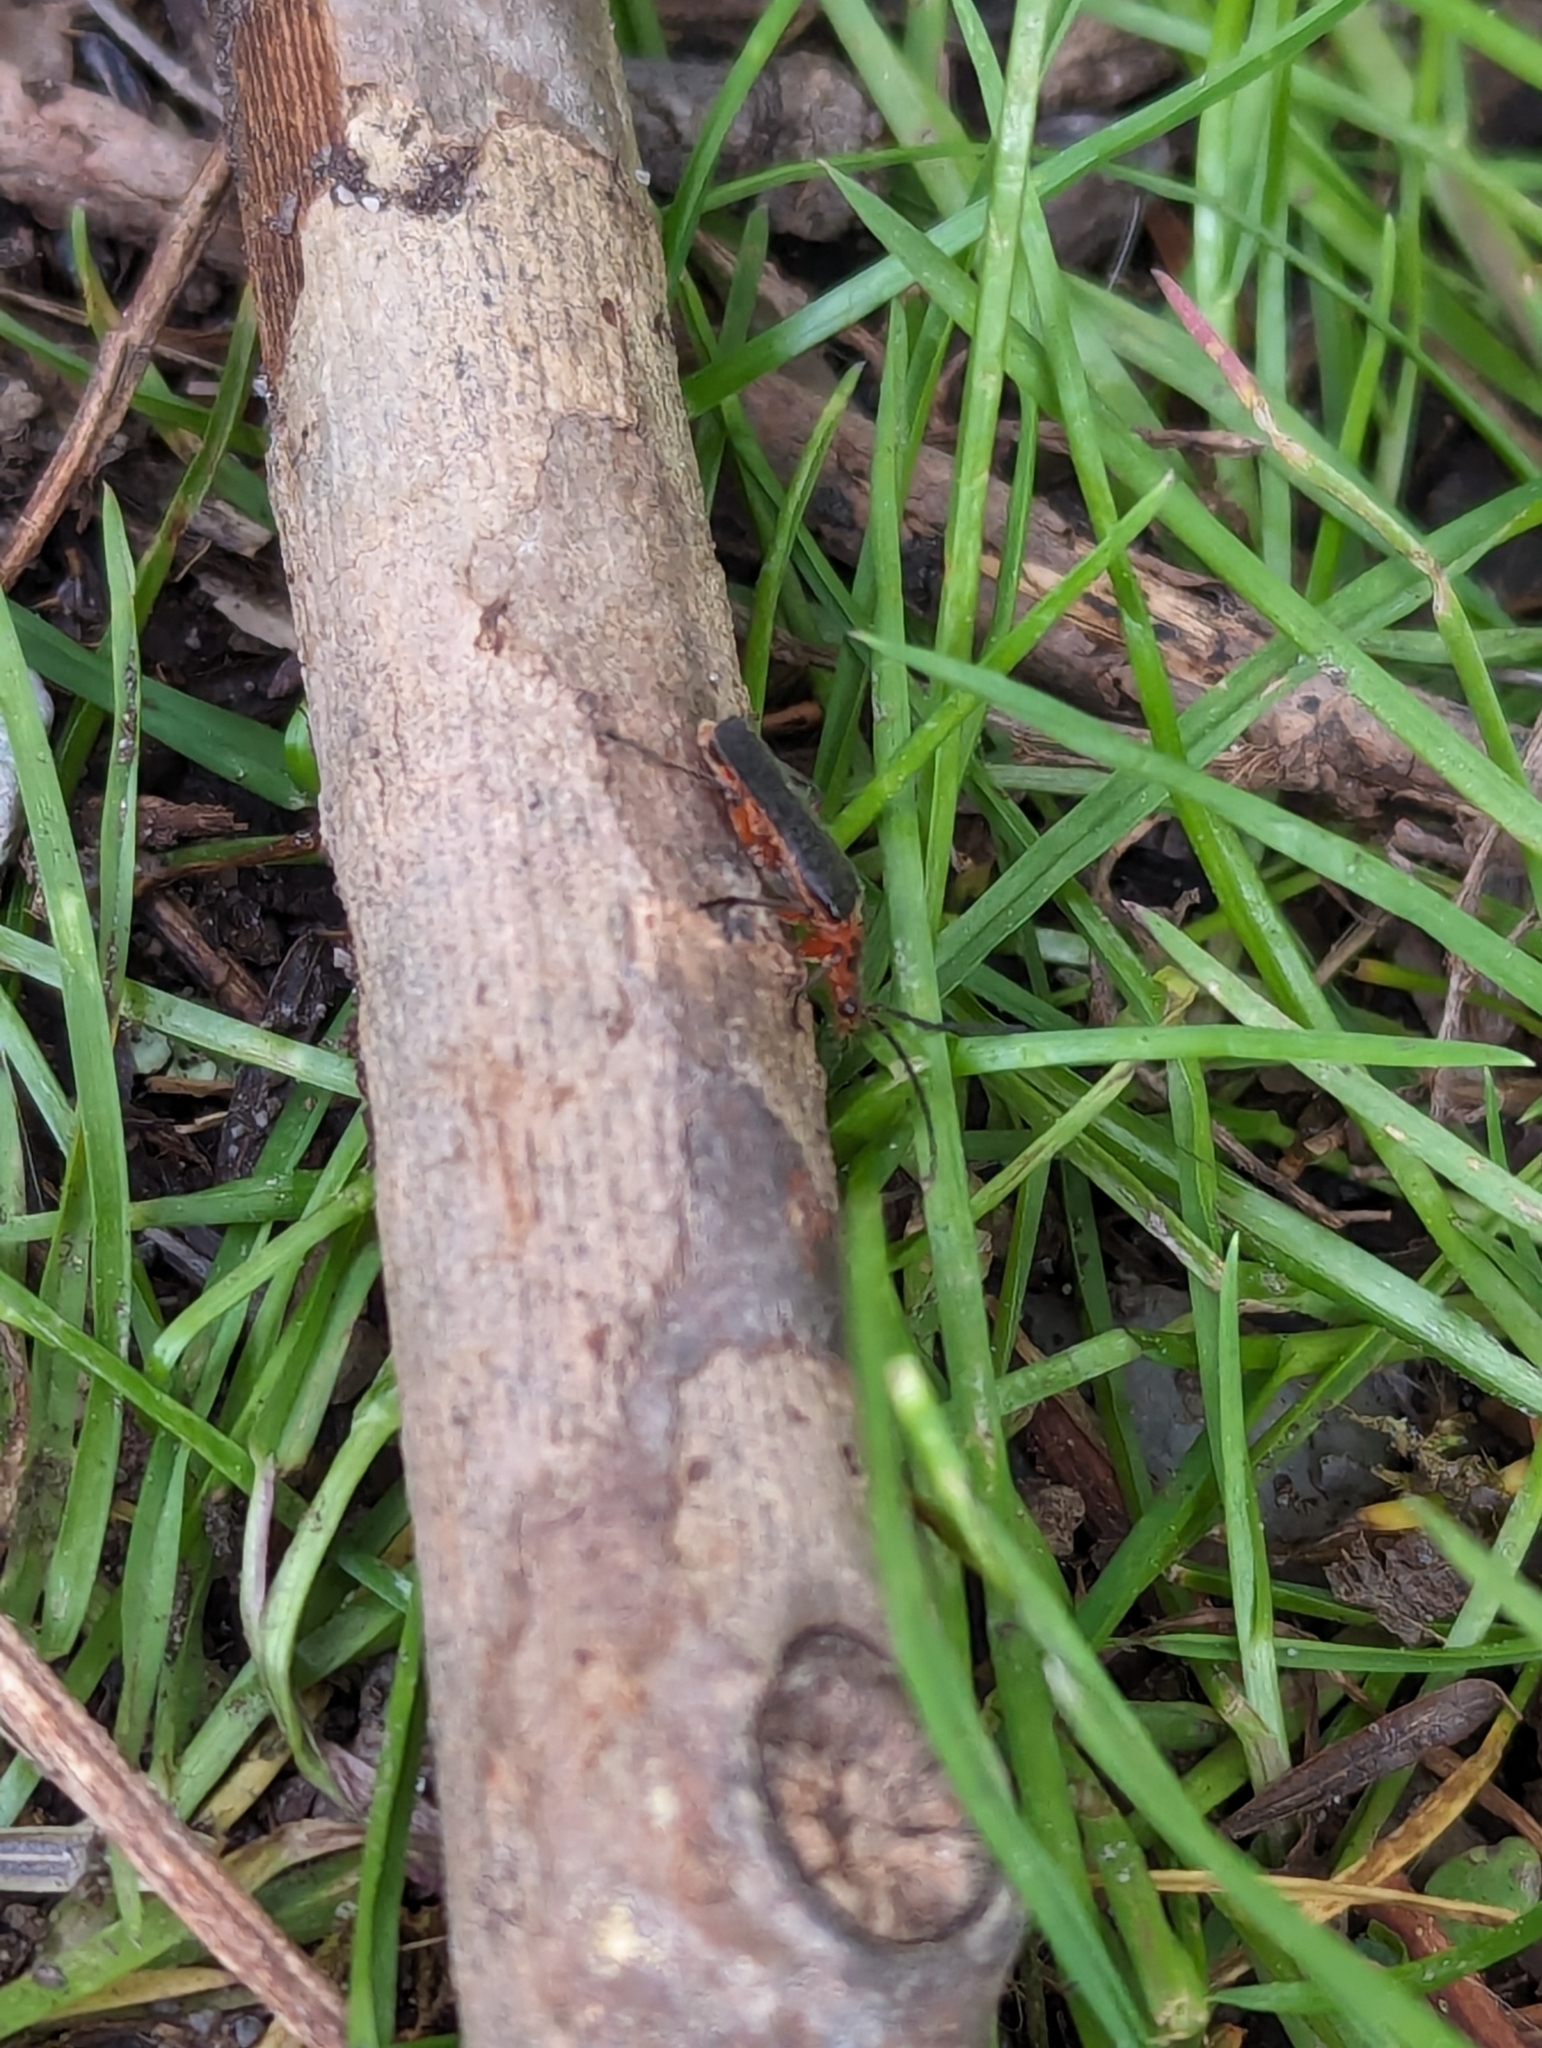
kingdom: Animalia
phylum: Arthropoda
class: Insecta
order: Coleoptera
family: Cantharidae
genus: Atalantycha
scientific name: Atalantycha bilineata
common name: Two-lined leatherwing
